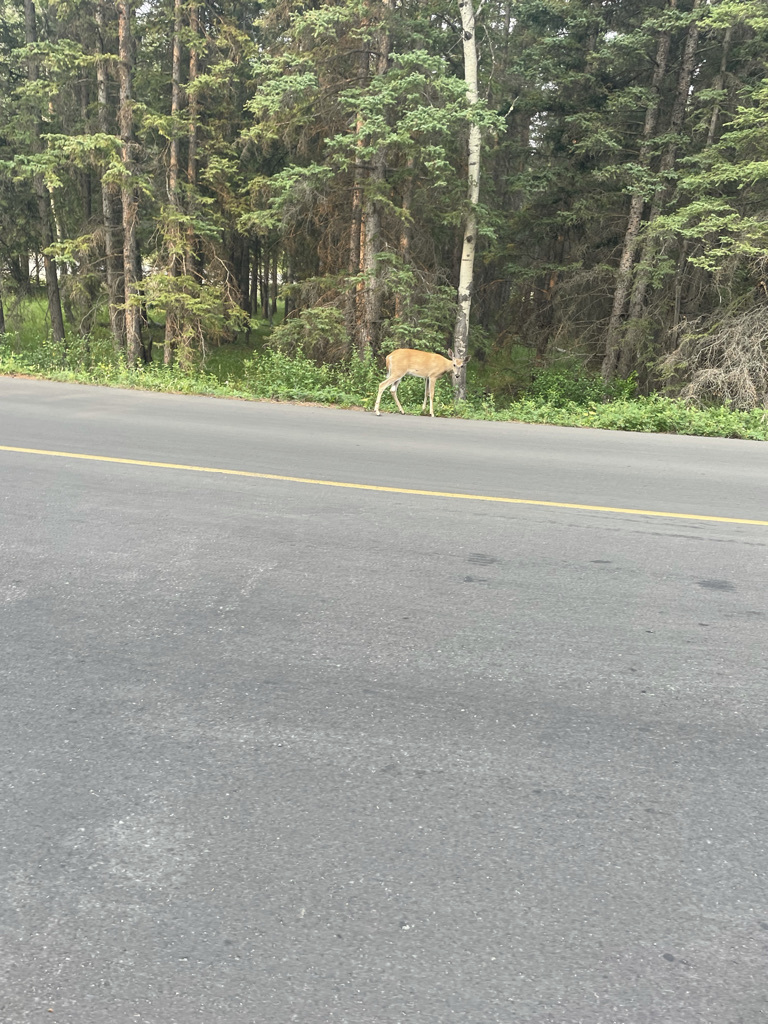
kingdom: Animalia
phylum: Chordata
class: Mammalia
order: Artiodactyla
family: Cervidae
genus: Odocoileus
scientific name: Odocoileus virginianus
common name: White-tailed deer
